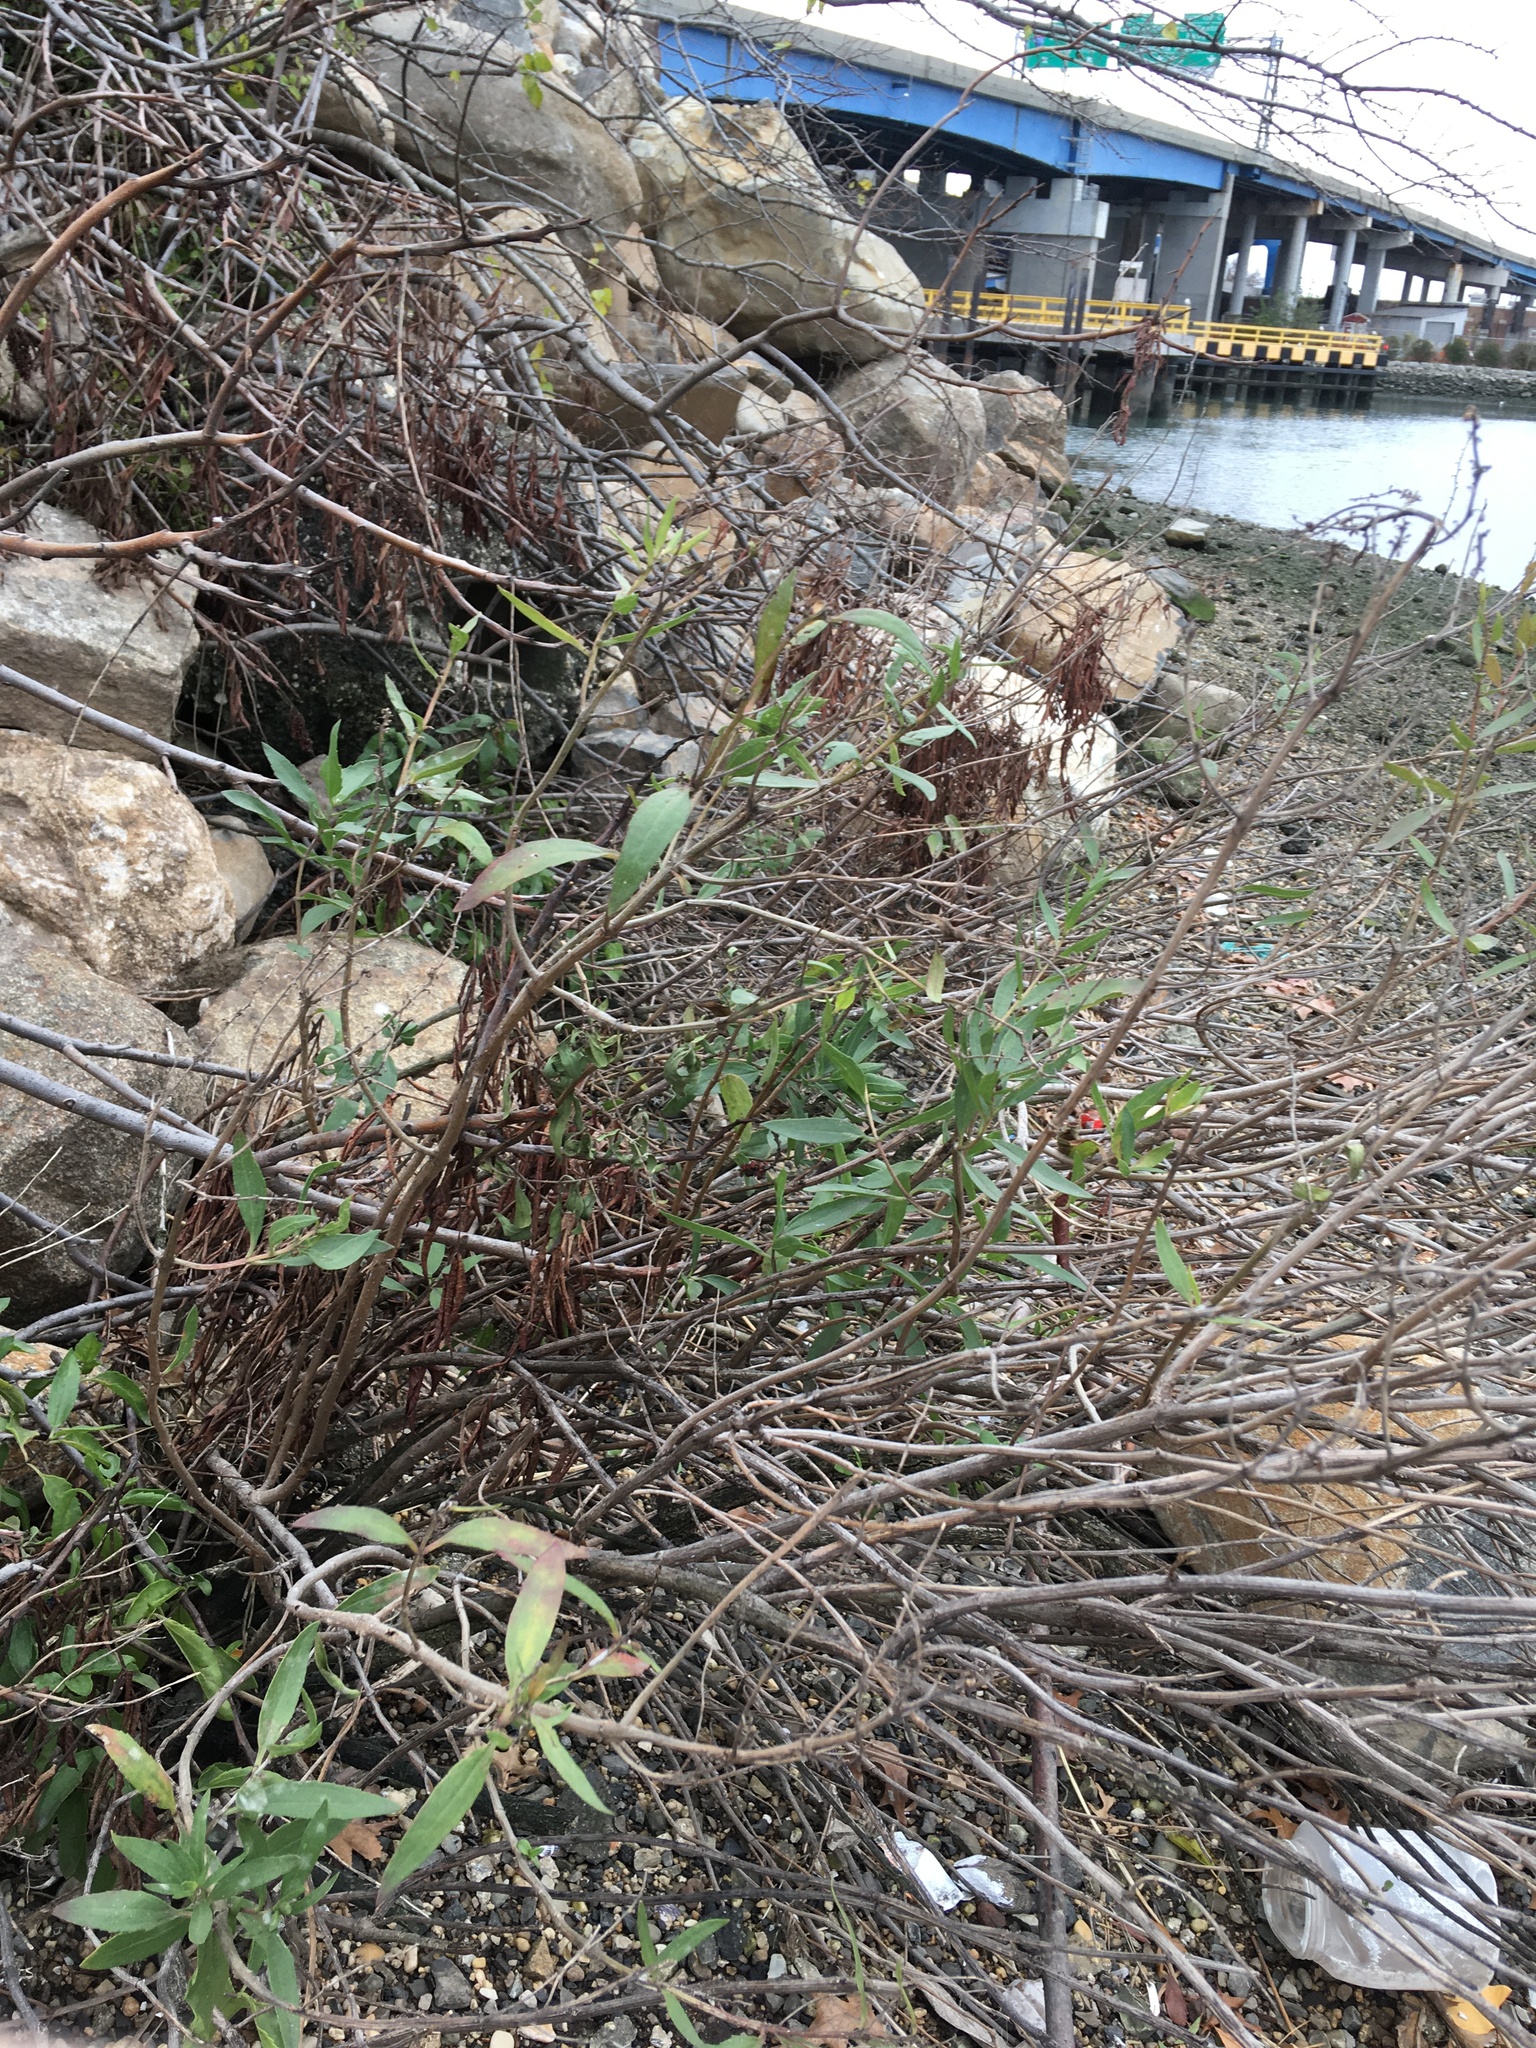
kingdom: Plantae
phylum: Tracheophyta
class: Magnoliopsida
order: Asterales
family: Asteraceae
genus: Iva
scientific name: Iva frutescens
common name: Big-leaved marsh-elder
